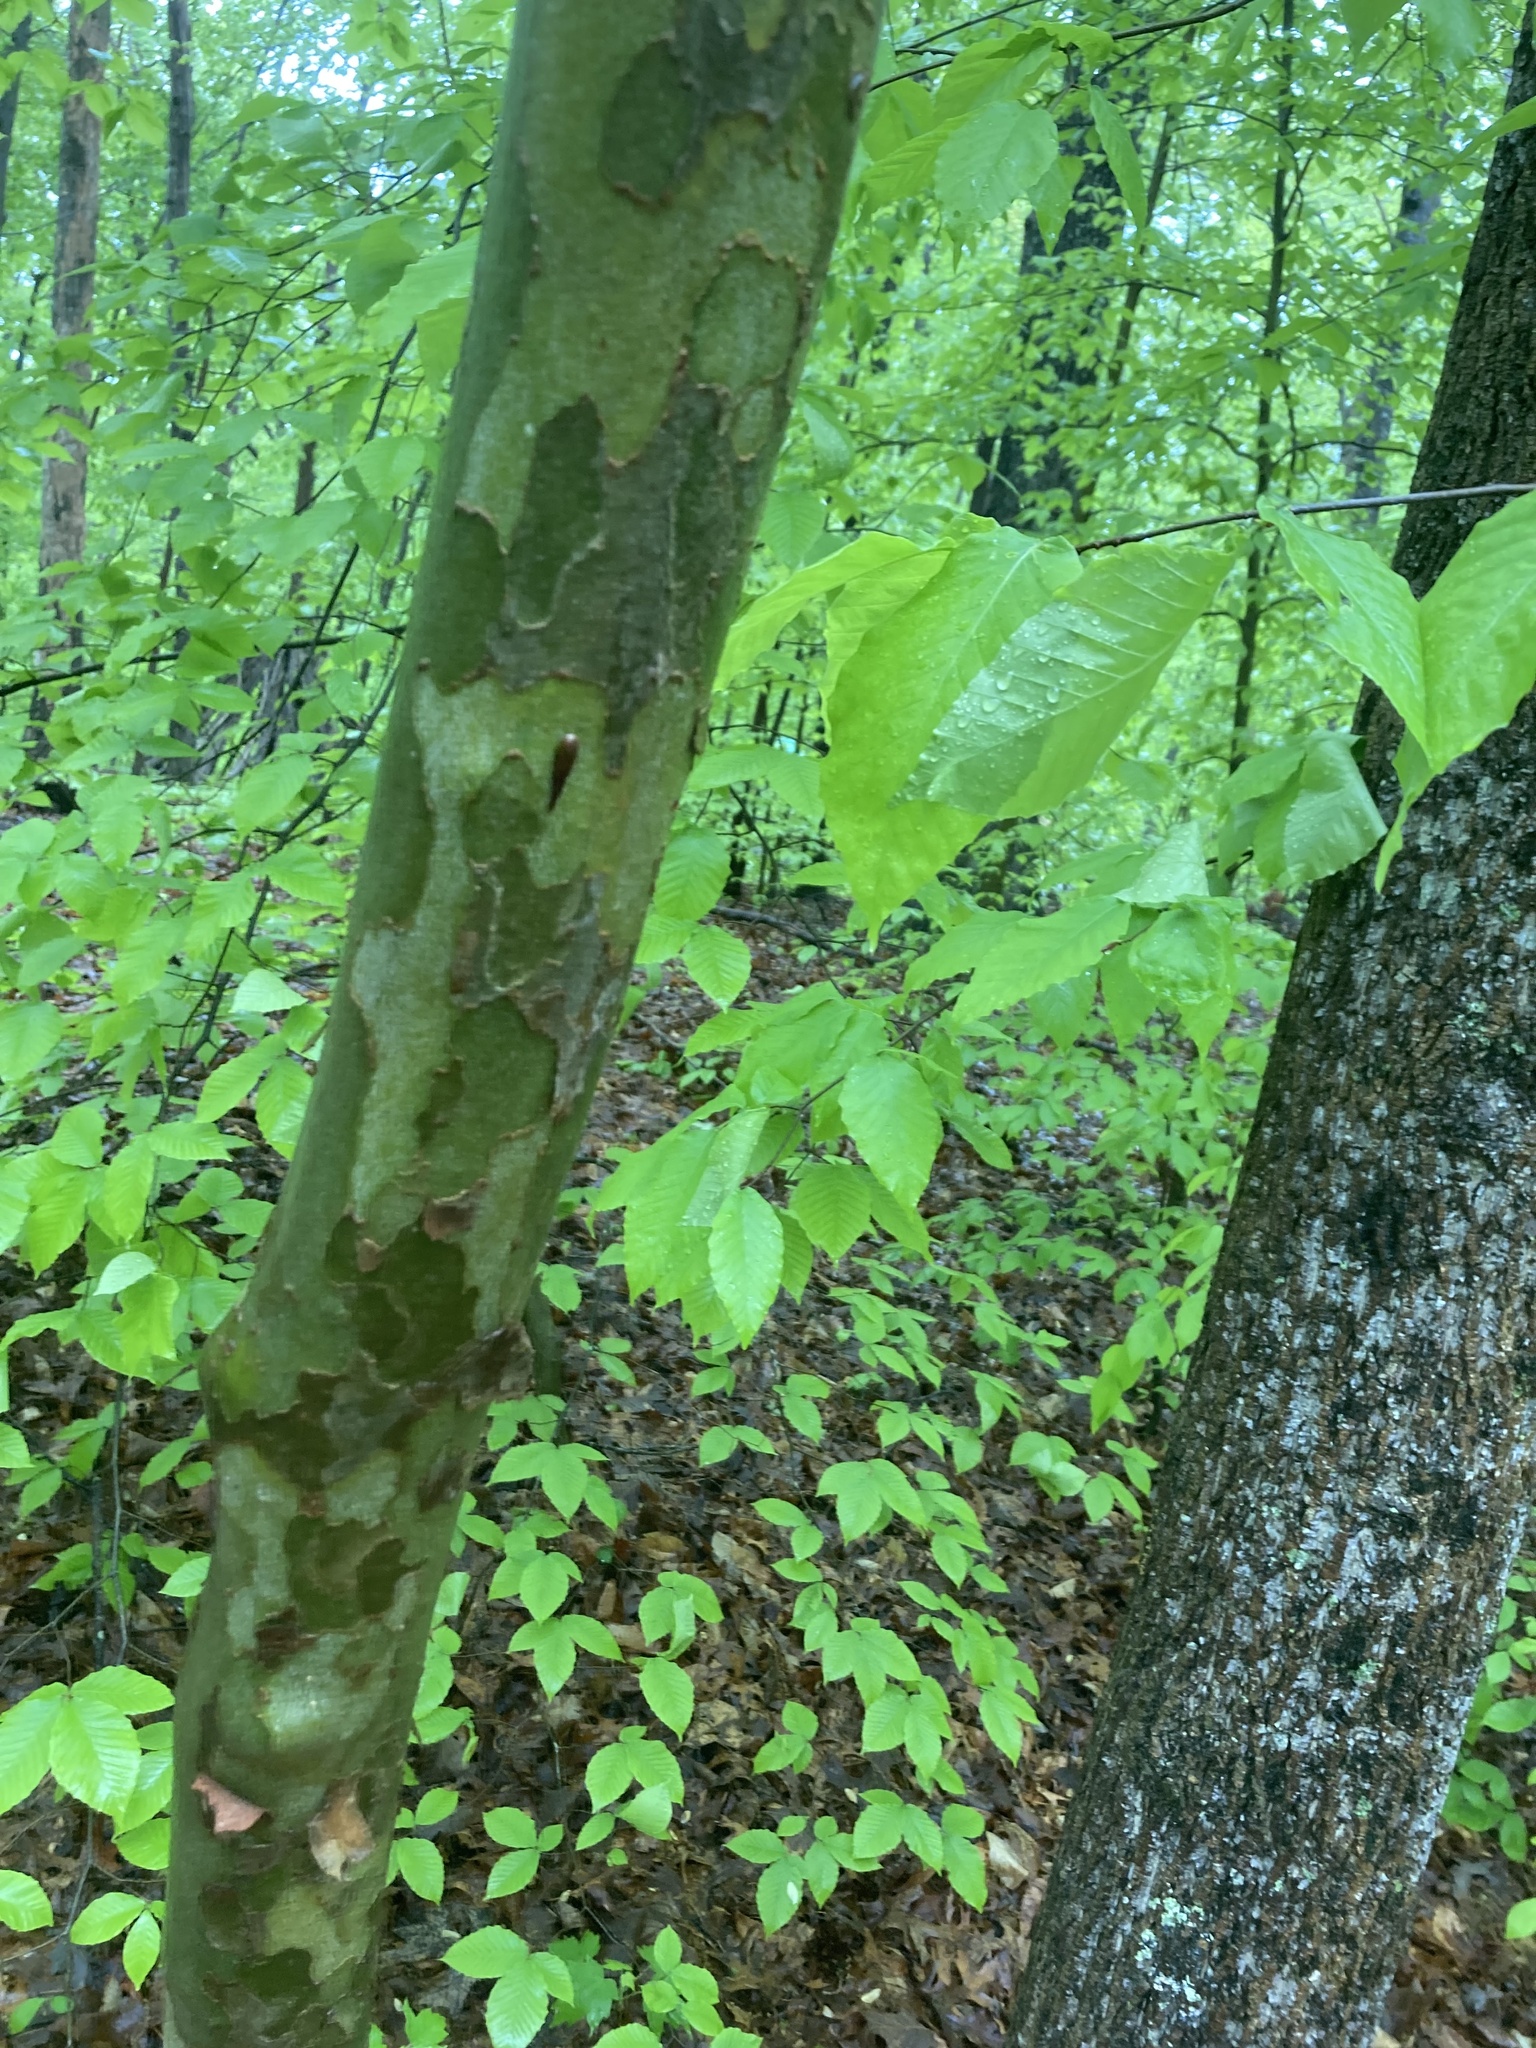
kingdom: Plantae
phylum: Tracheophyta
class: Magnoliopsida
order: Proteales
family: Platanaceae
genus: Platanus
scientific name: Platanus occidentalis
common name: American sycamore
